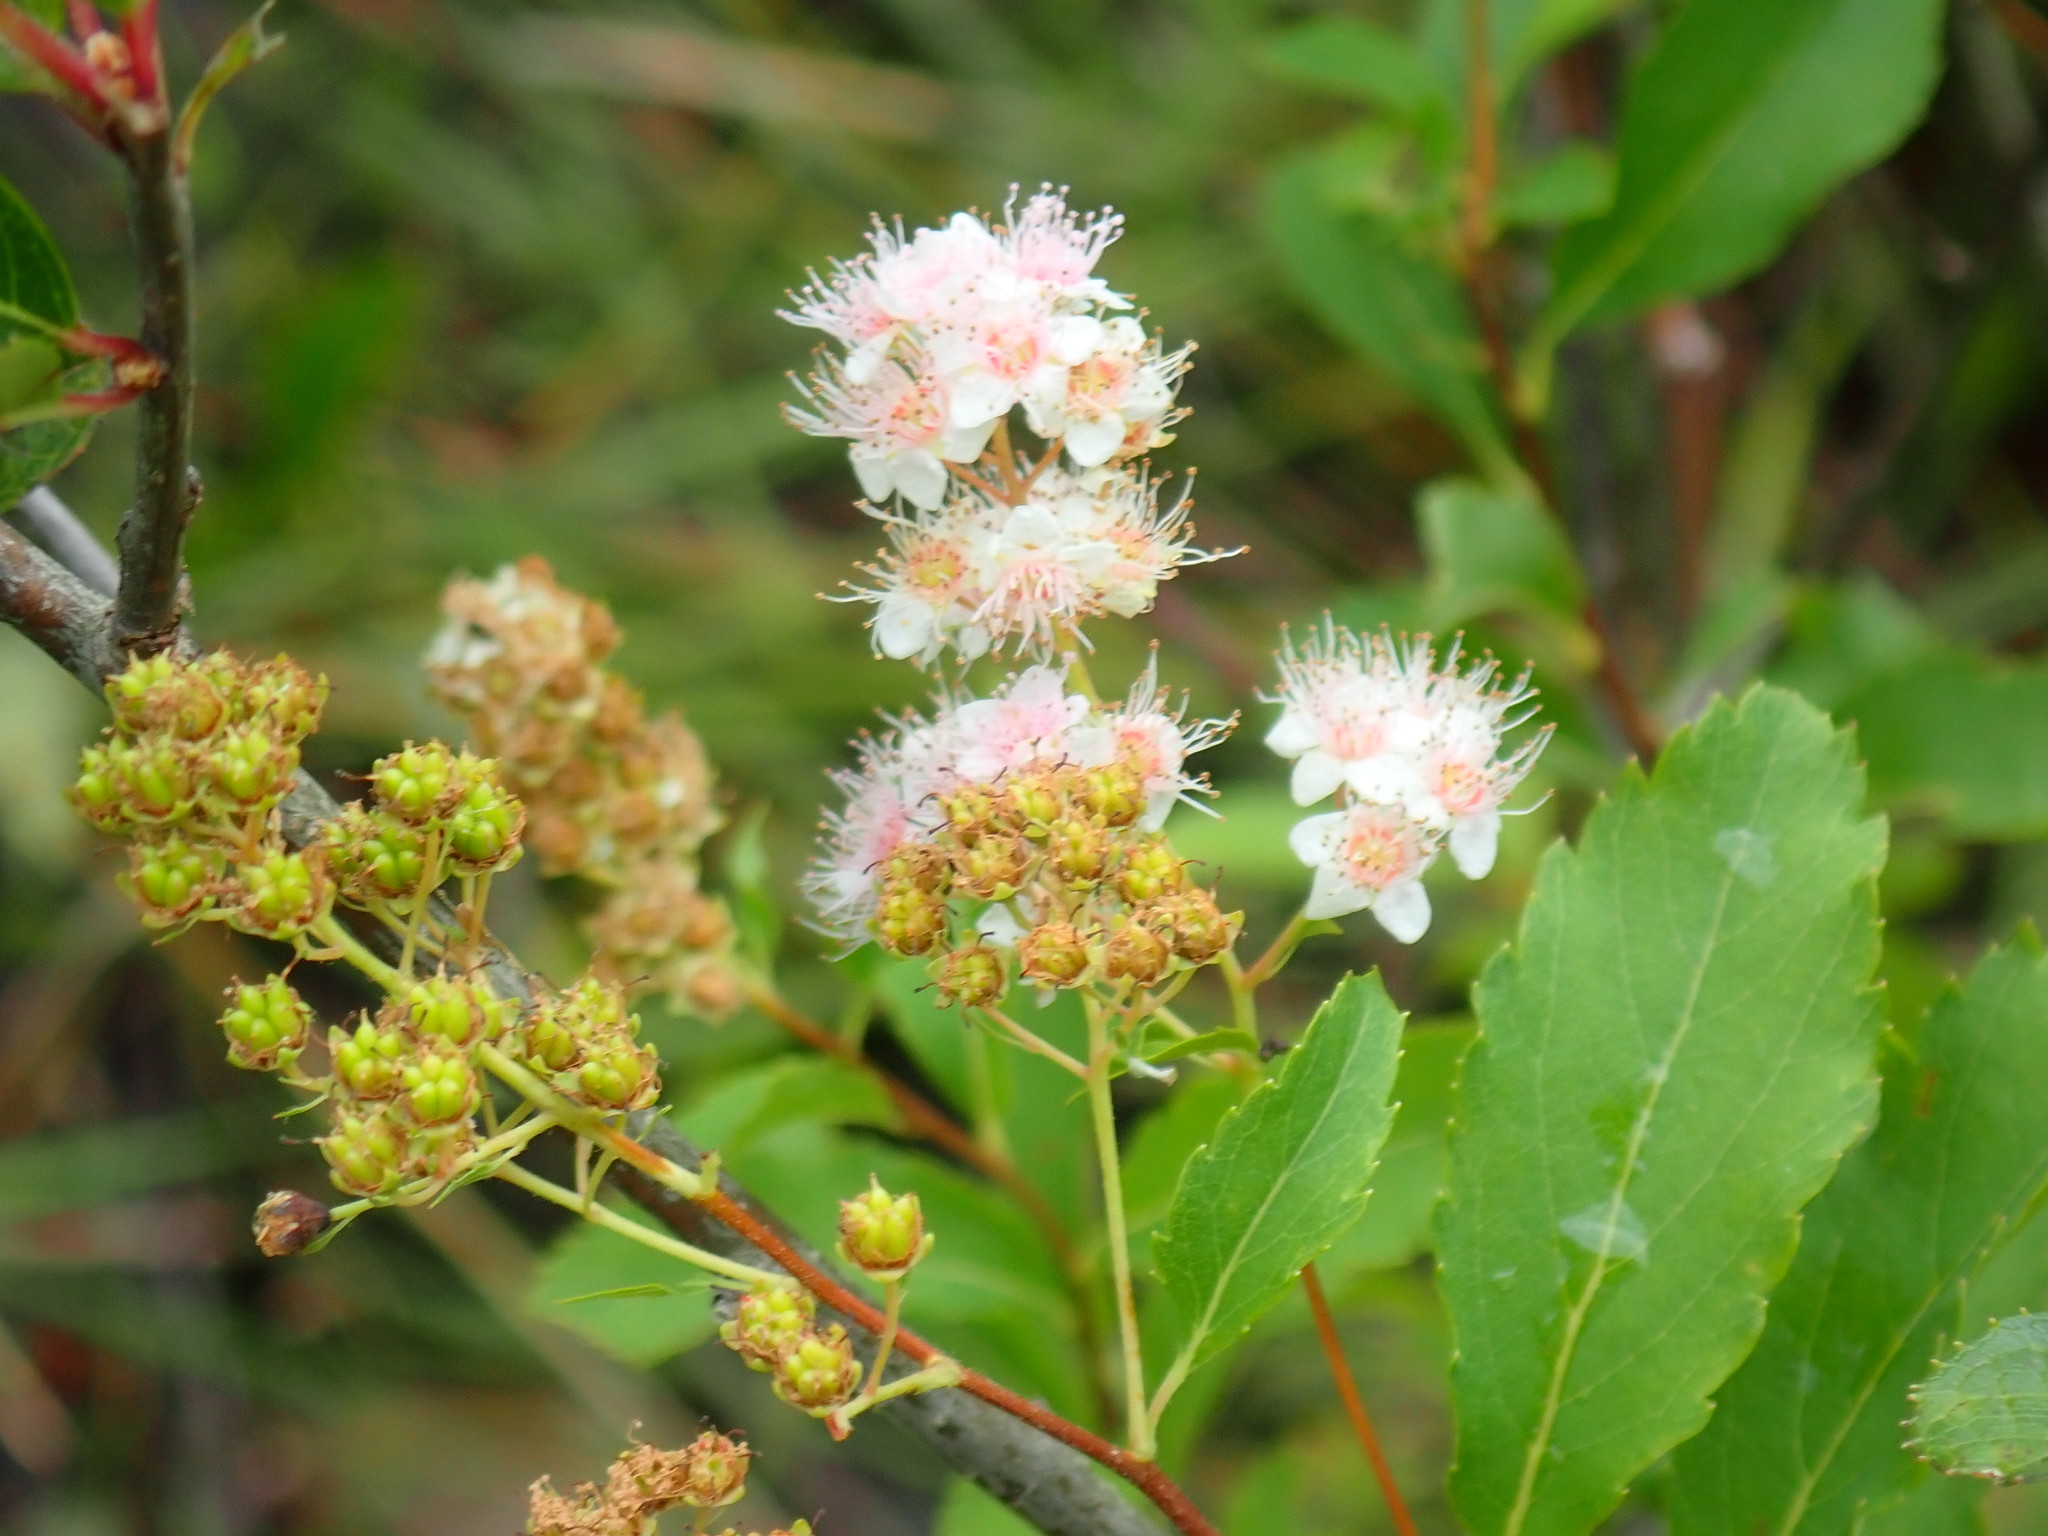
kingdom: Plantae
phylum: Tracheophyta
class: Magnoliopsida
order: Rosales
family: Rosaceae
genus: Spiraea
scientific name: Spiraea alba
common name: Pale bridewort
